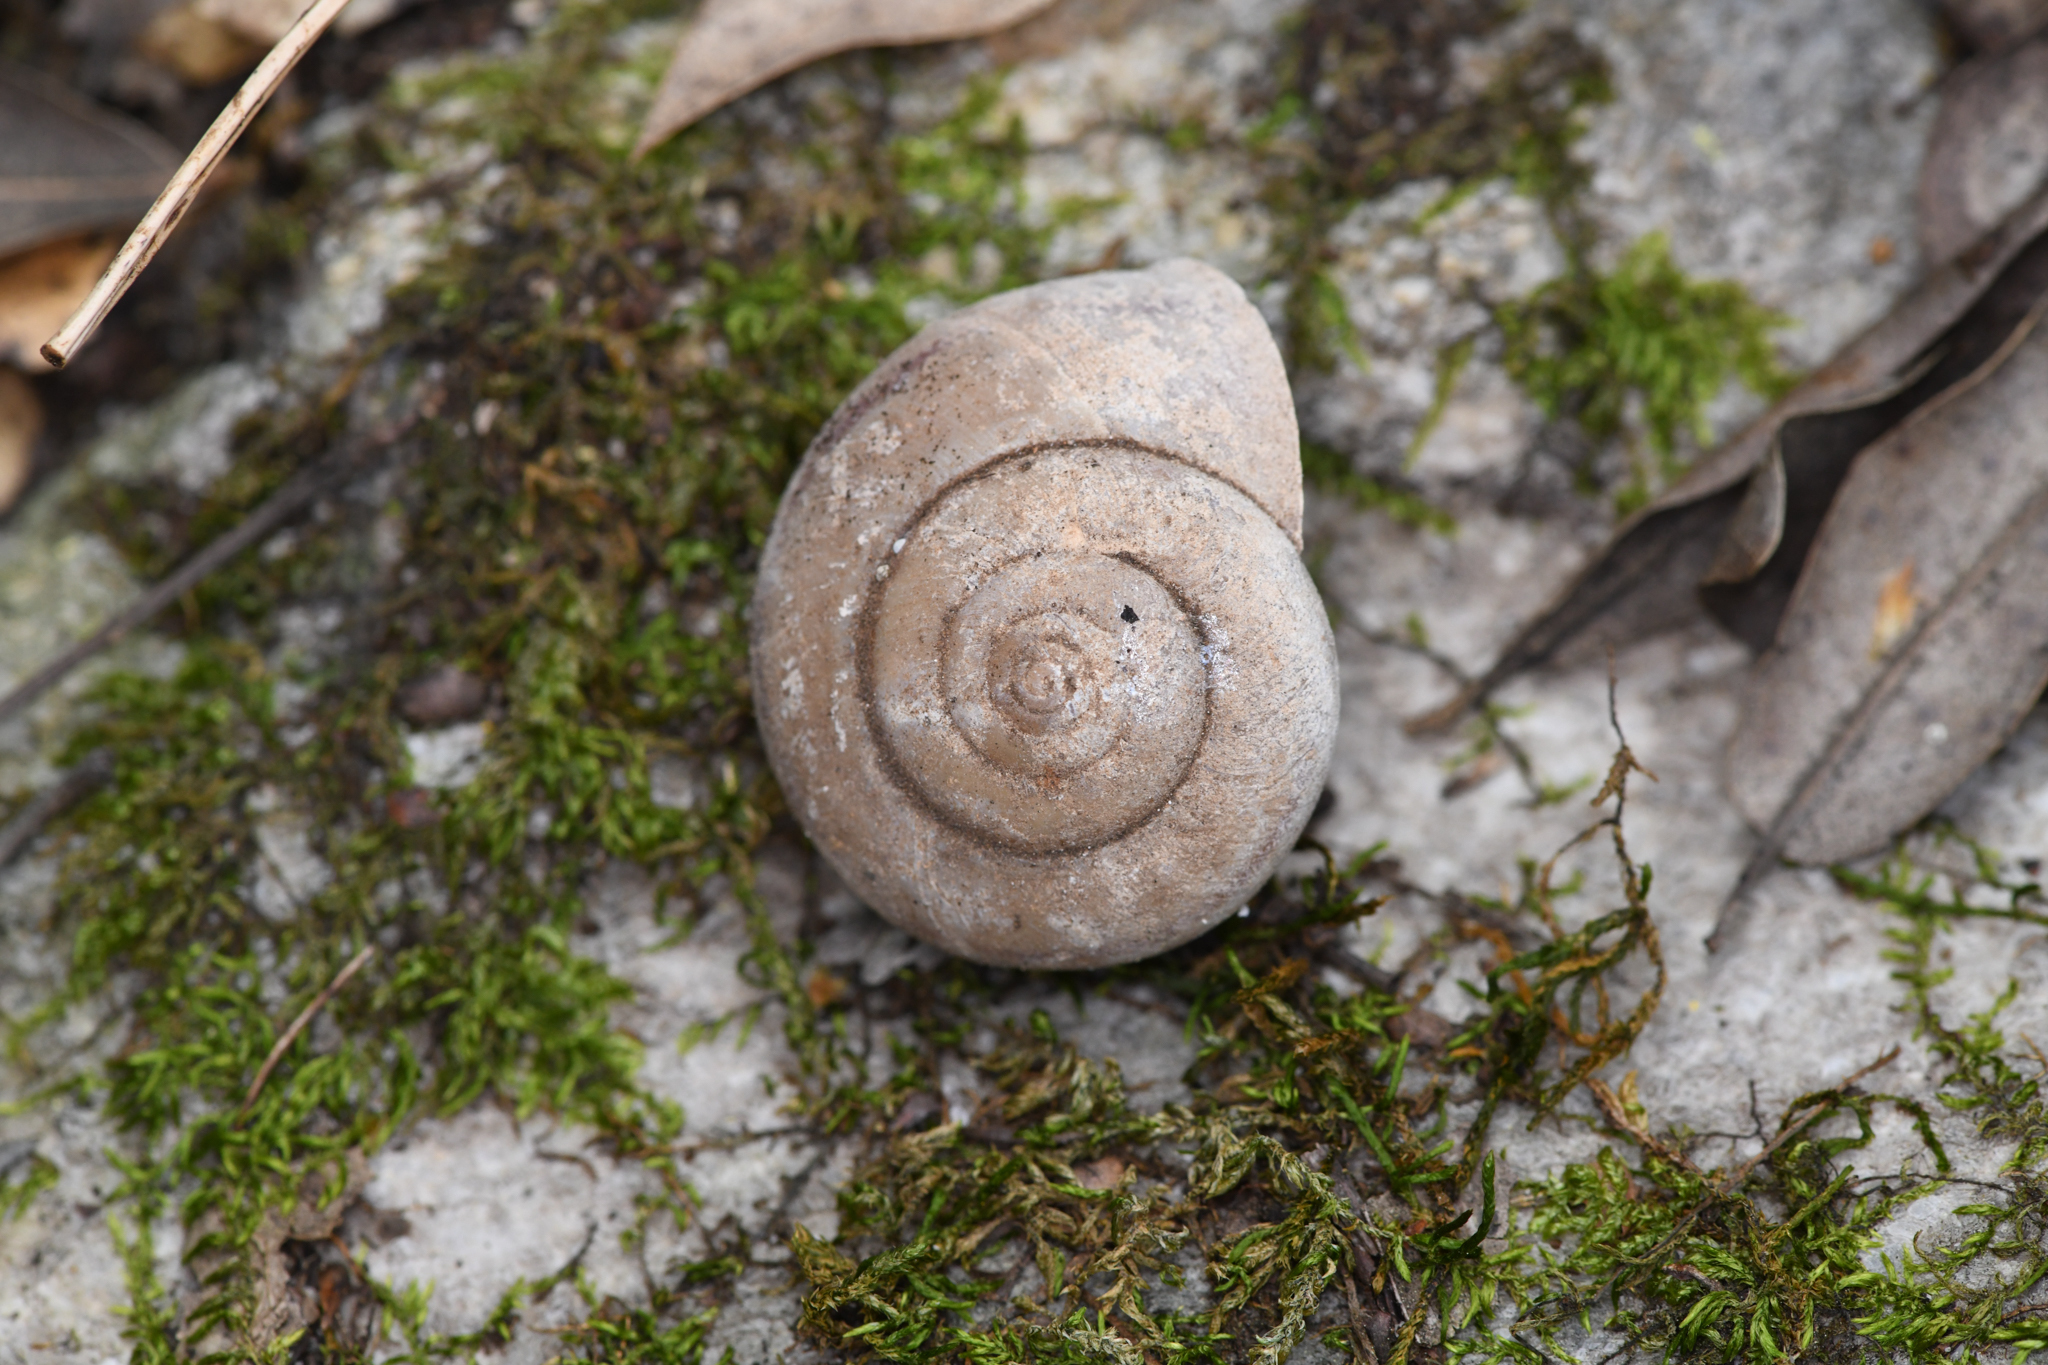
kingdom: Animalia
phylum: Mollusca
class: Gastropoda
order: Stylommatophora
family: Xanthonychidae
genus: Helminthoglypta
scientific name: Helminthoglypta cypreophila
